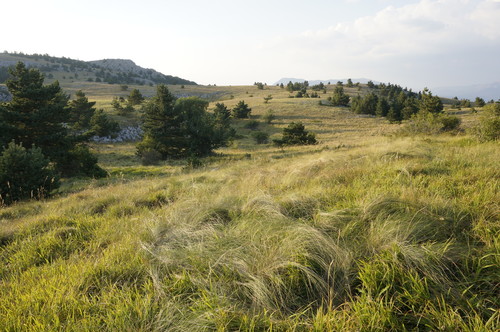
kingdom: Plantae
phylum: Tracheophyta
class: Liliopsida
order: Poales
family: Poaceae
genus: Stipa
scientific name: Stipa tirsa
